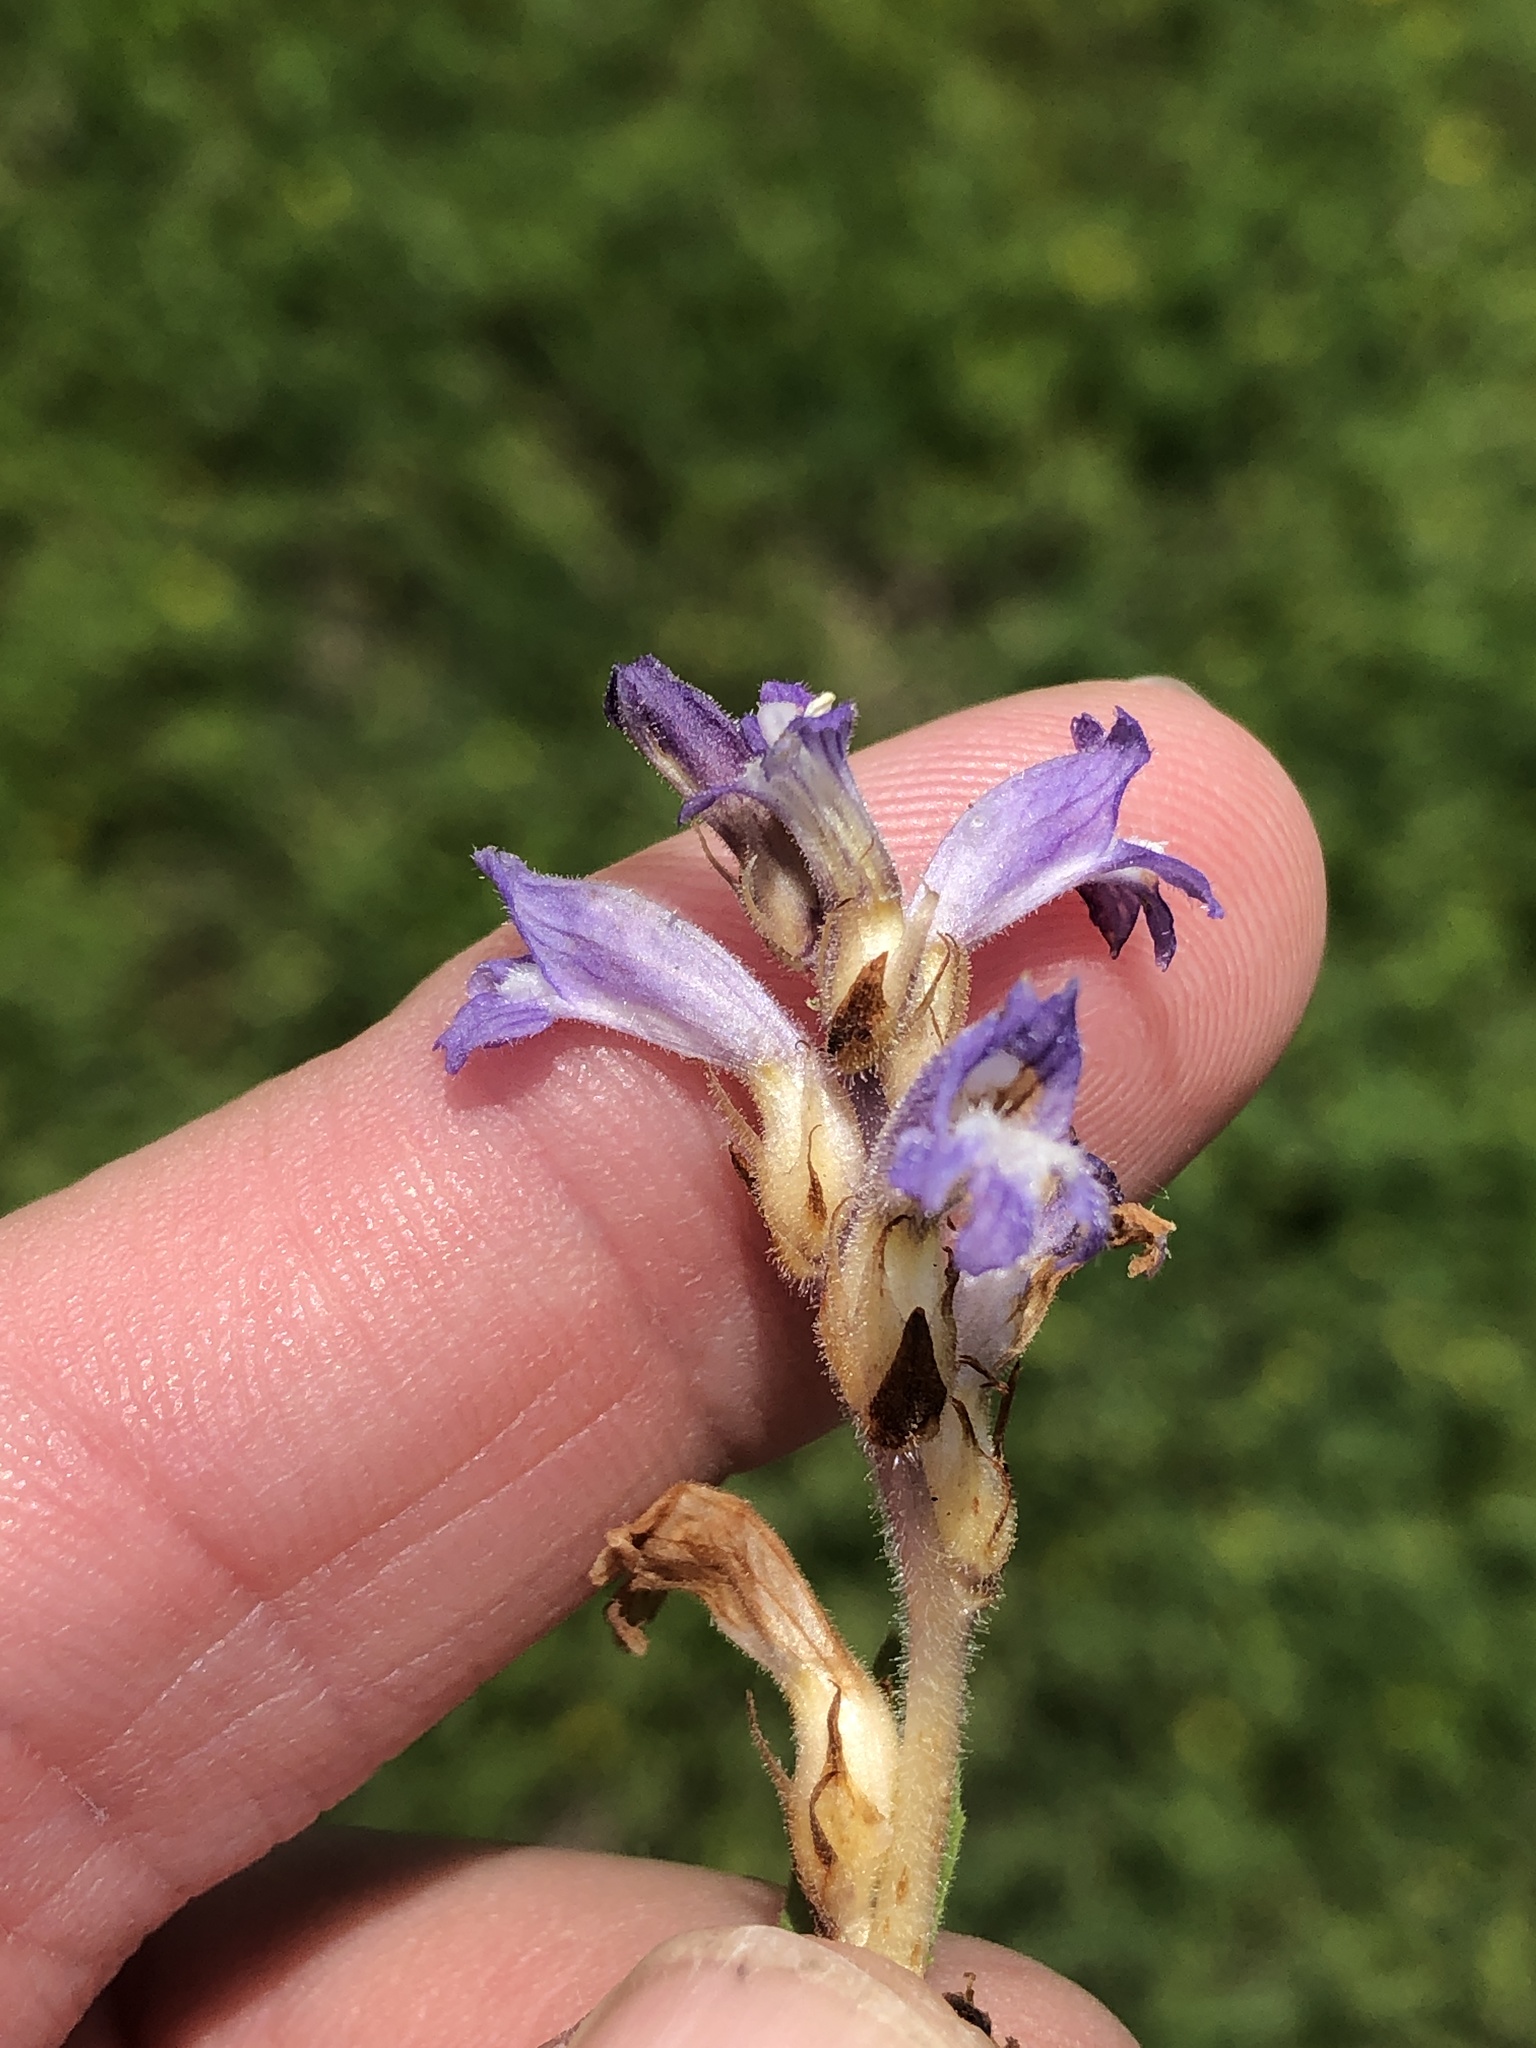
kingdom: Plantae
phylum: Tracheophyta
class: Magnoliopsida
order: Lamiales
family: Orobanchaceae
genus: Phelipanche
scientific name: Phelipanche mutelii
